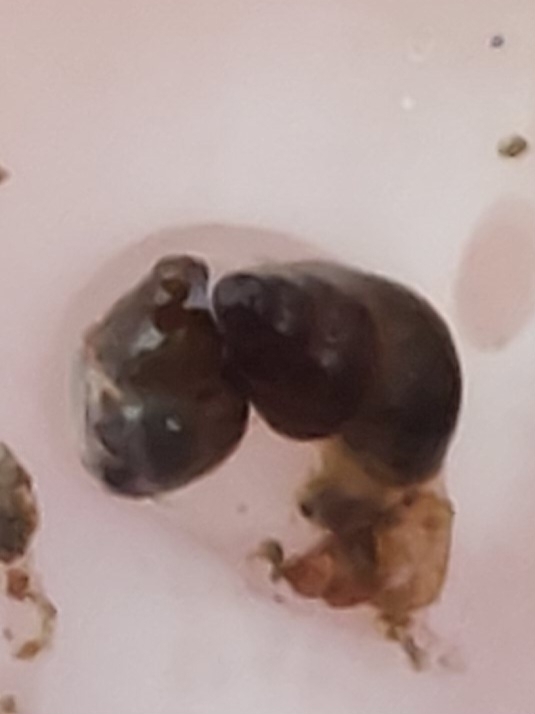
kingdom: Animalia
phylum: Mollusca
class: Gastropoda
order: Littorinimorpha
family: Tateidae
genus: Potamopyrgus
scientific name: Potamopyrgus antipodarum
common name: Jenkins' spire snail
